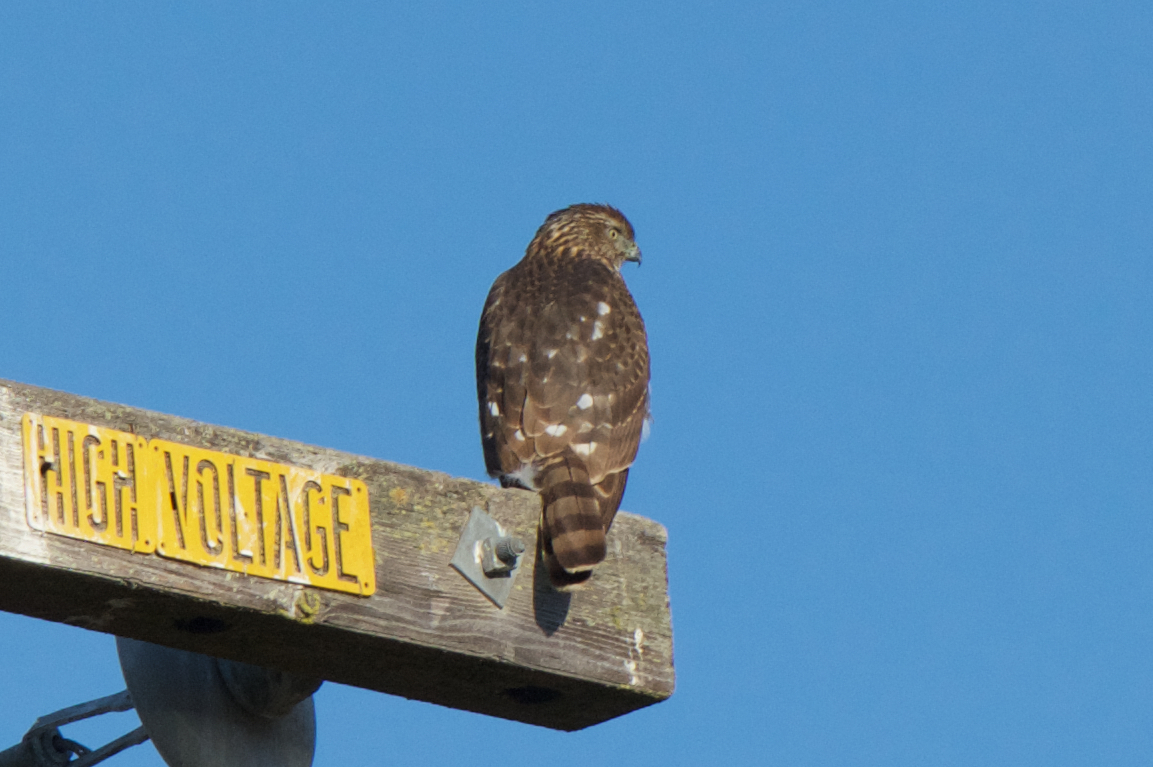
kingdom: Animalia
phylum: Chordata
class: Aves
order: Accipitriformes
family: Accipitridae
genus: Accipiter
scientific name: Accipiter cooperii
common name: Cooper's hawk
